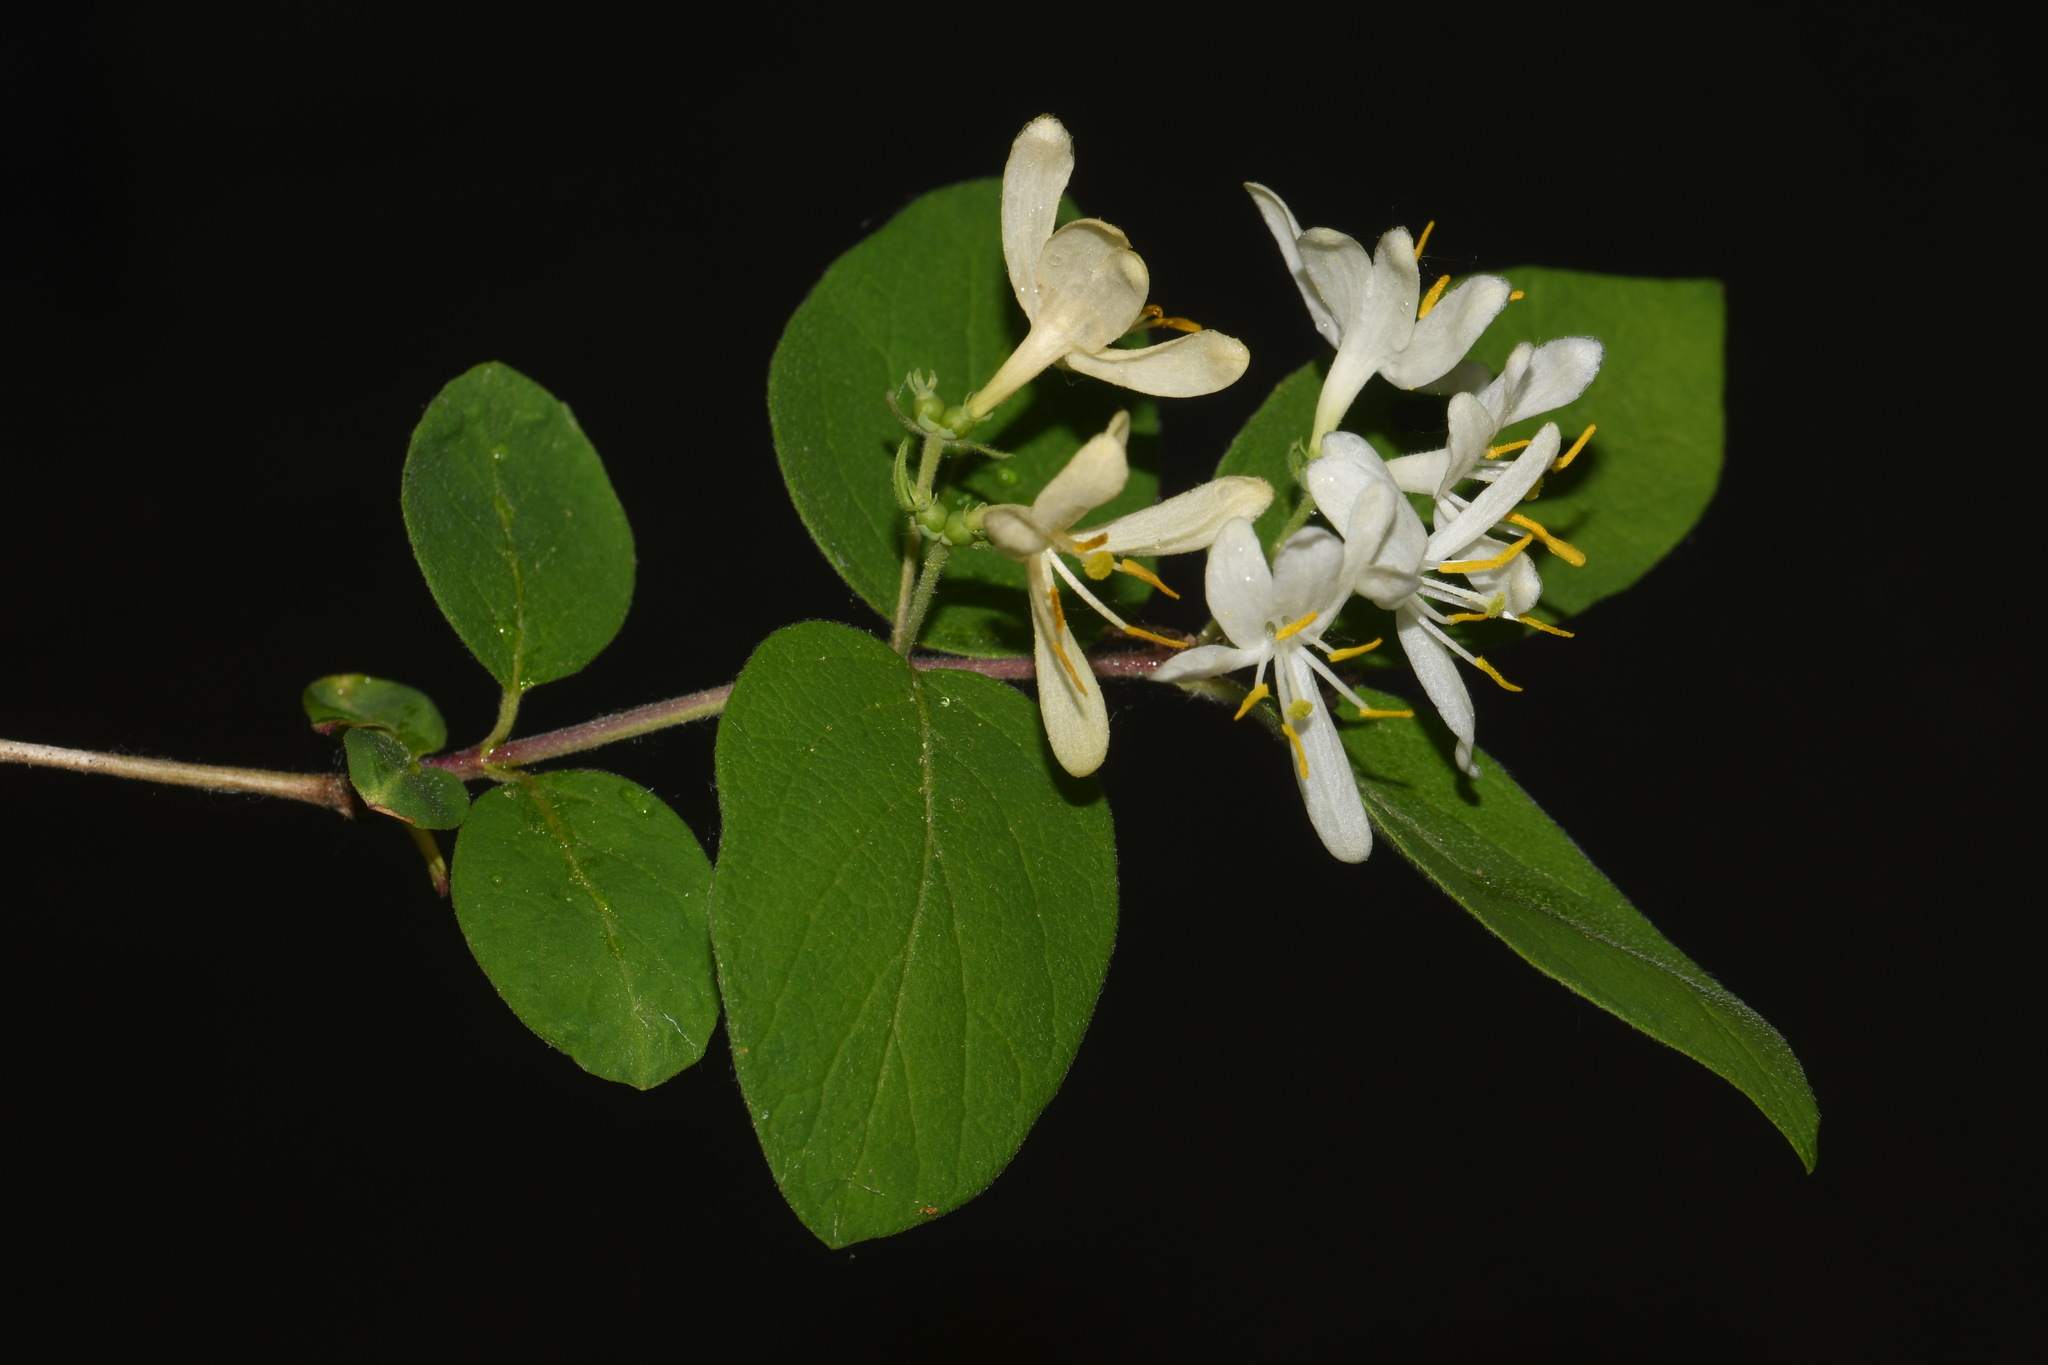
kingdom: Plantae
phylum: Tracheophyta
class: Magnoliopsida
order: Dipsacales
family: Caprifoliaceae
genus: Lonicera
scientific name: Lonicera morrowii
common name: Morrow's honeysuckle
